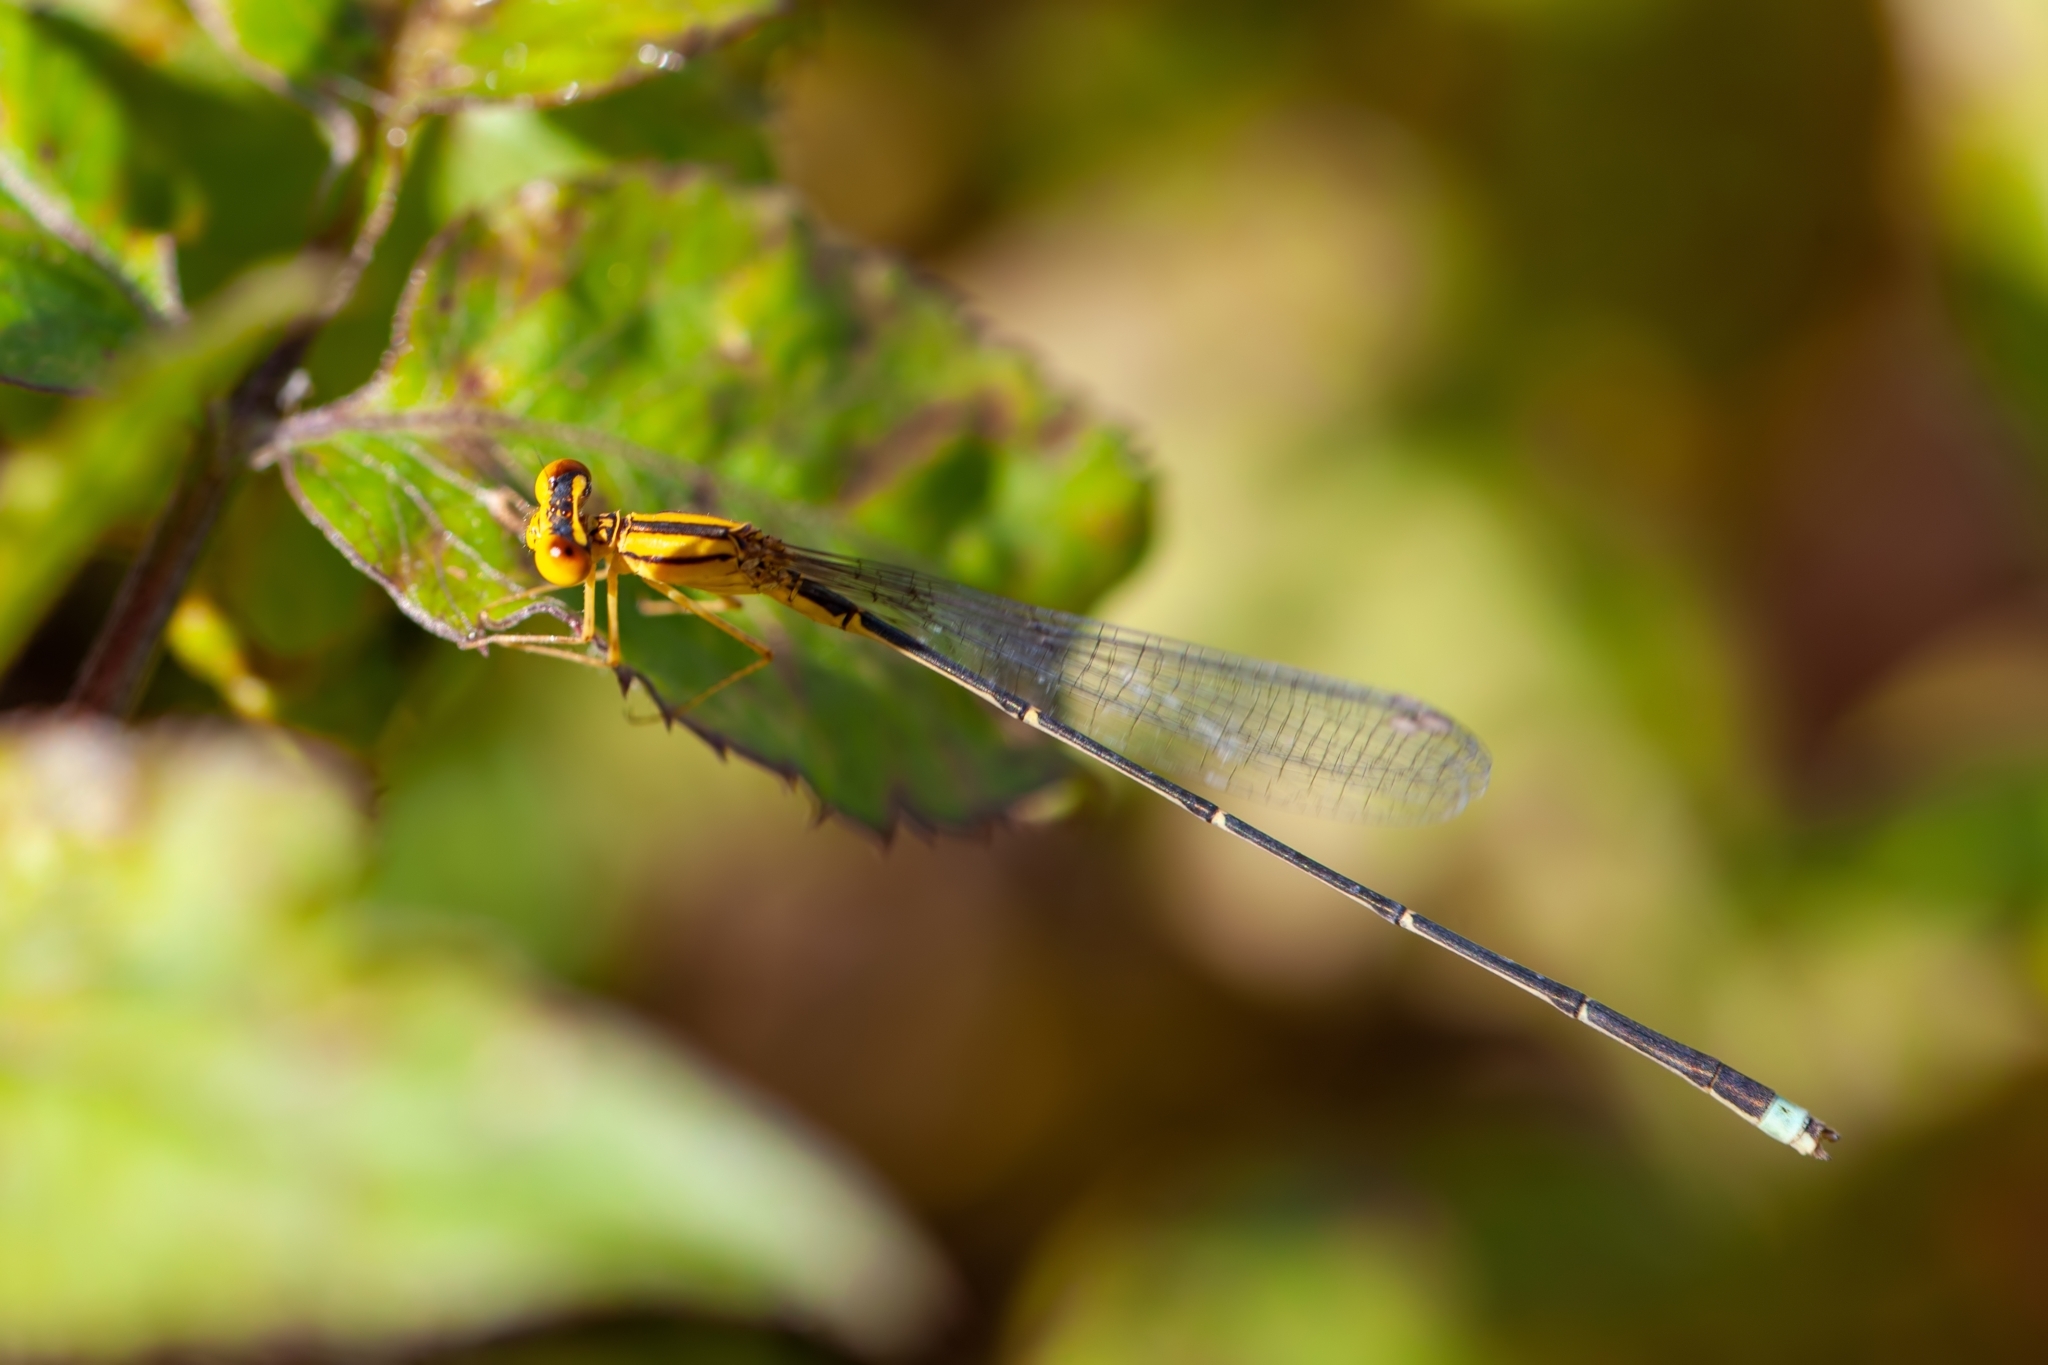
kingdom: Animalia
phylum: Arthropoda
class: Insecta
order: Odonata
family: Coenagrionidae
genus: Enallagma
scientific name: Enallagma vesperum
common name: Vesper bluet
